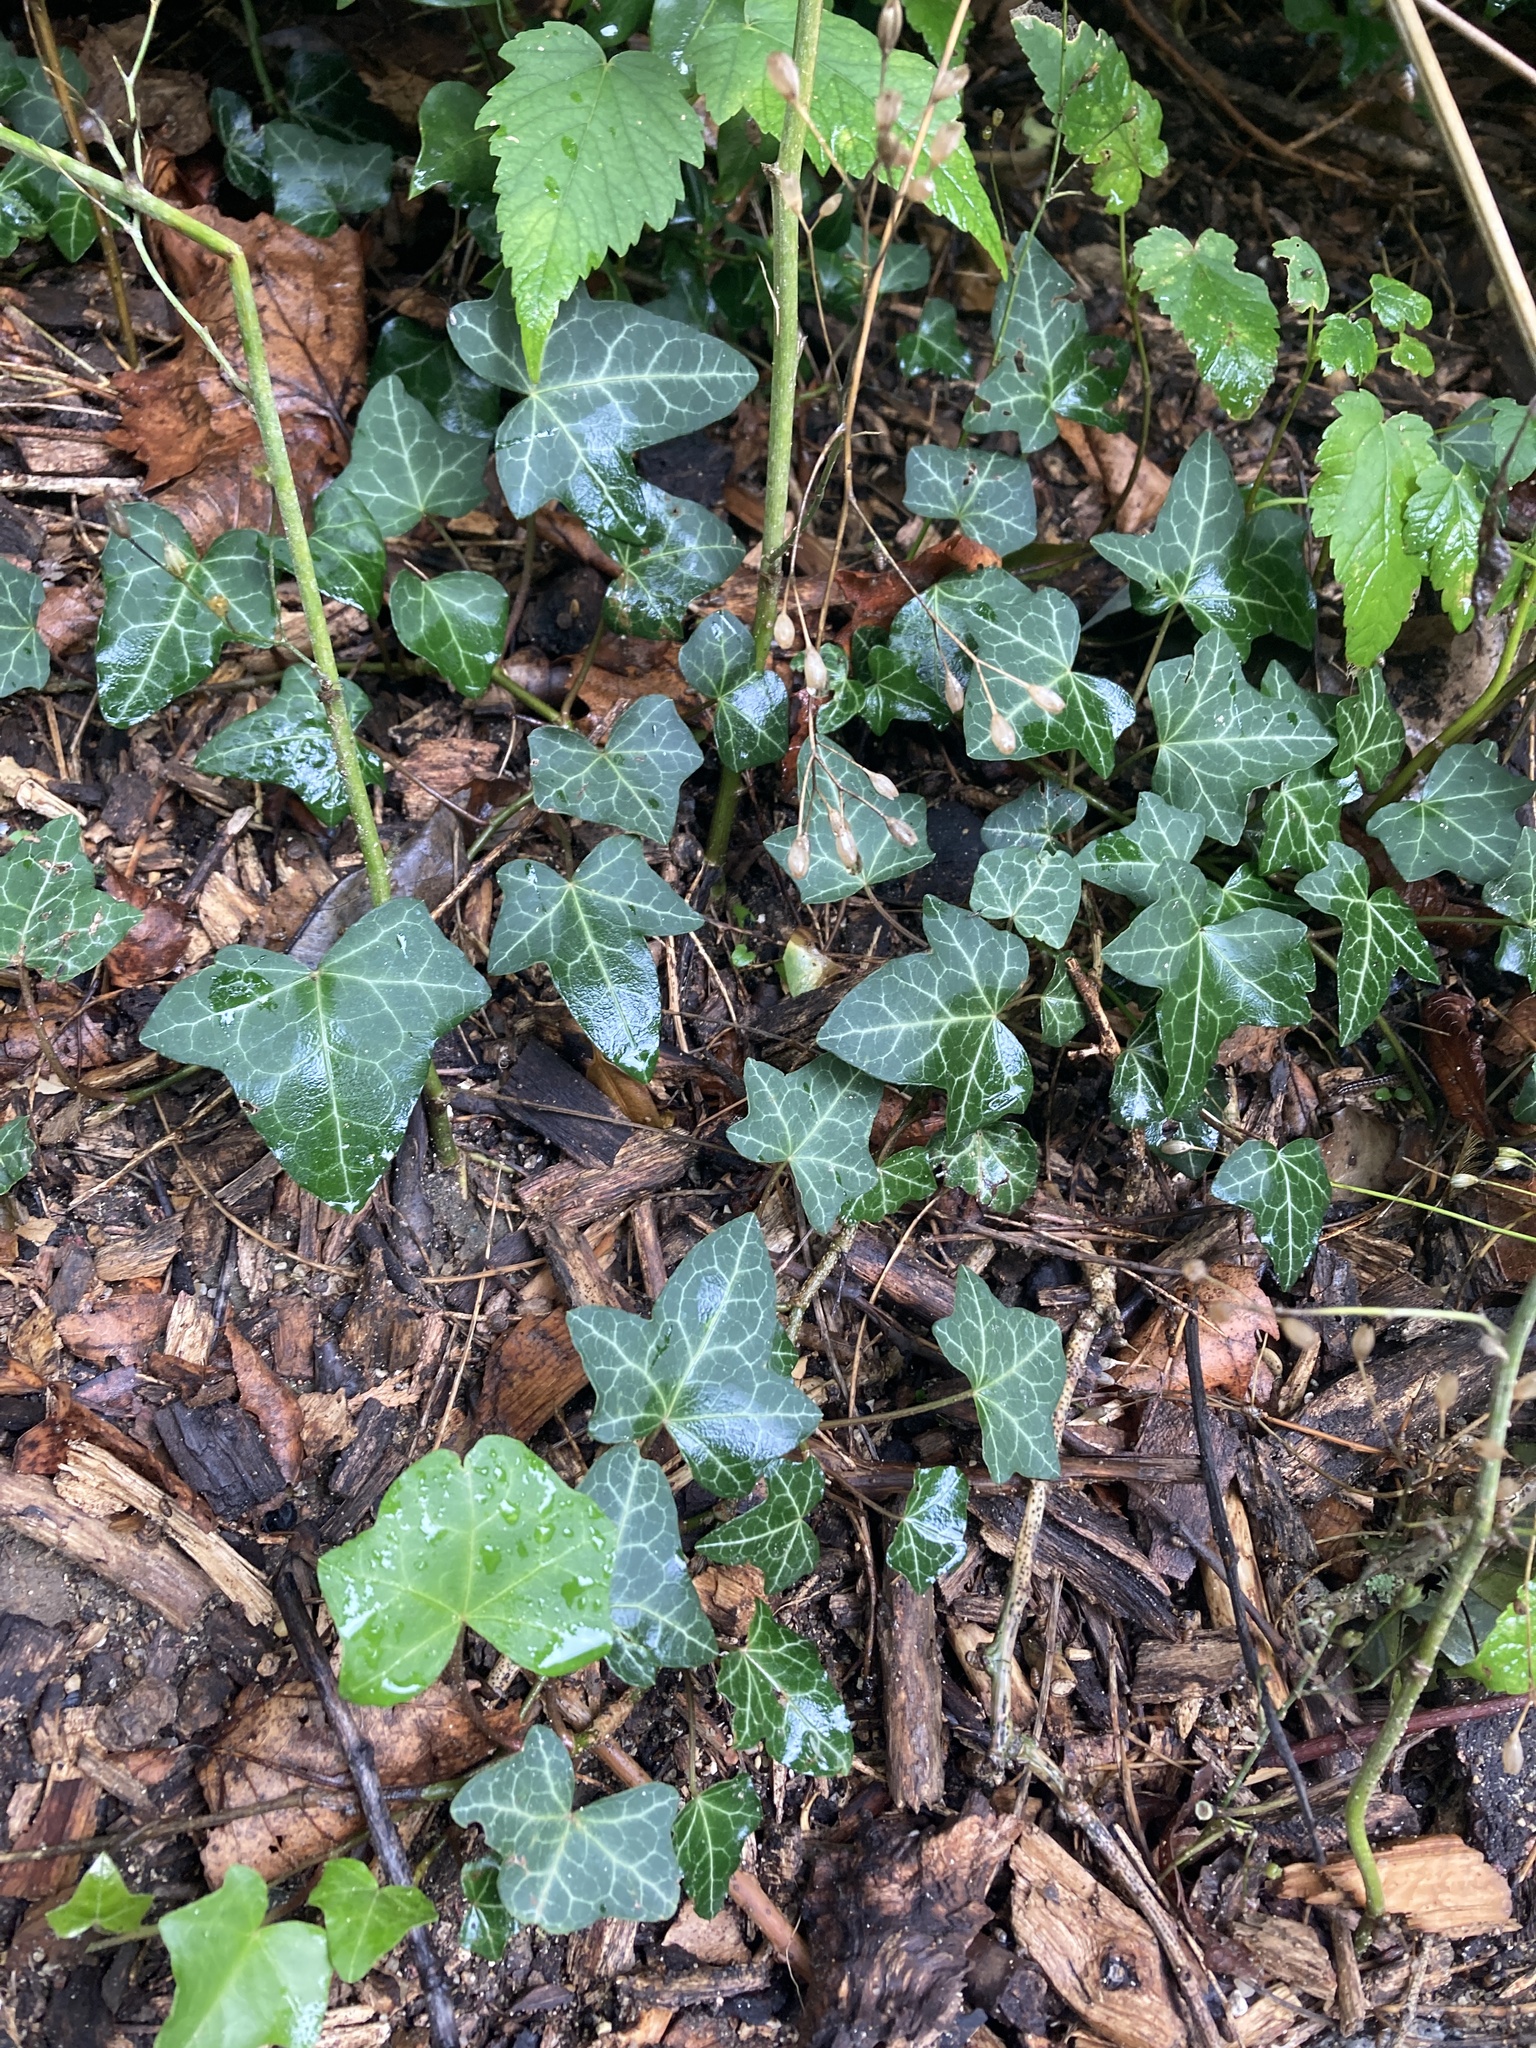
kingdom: Plantae
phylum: Tracheophyta
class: Magnoliopsida
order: Apiales
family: Araliaceae
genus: Hedera
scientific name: Hedera helix
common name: Ivy
